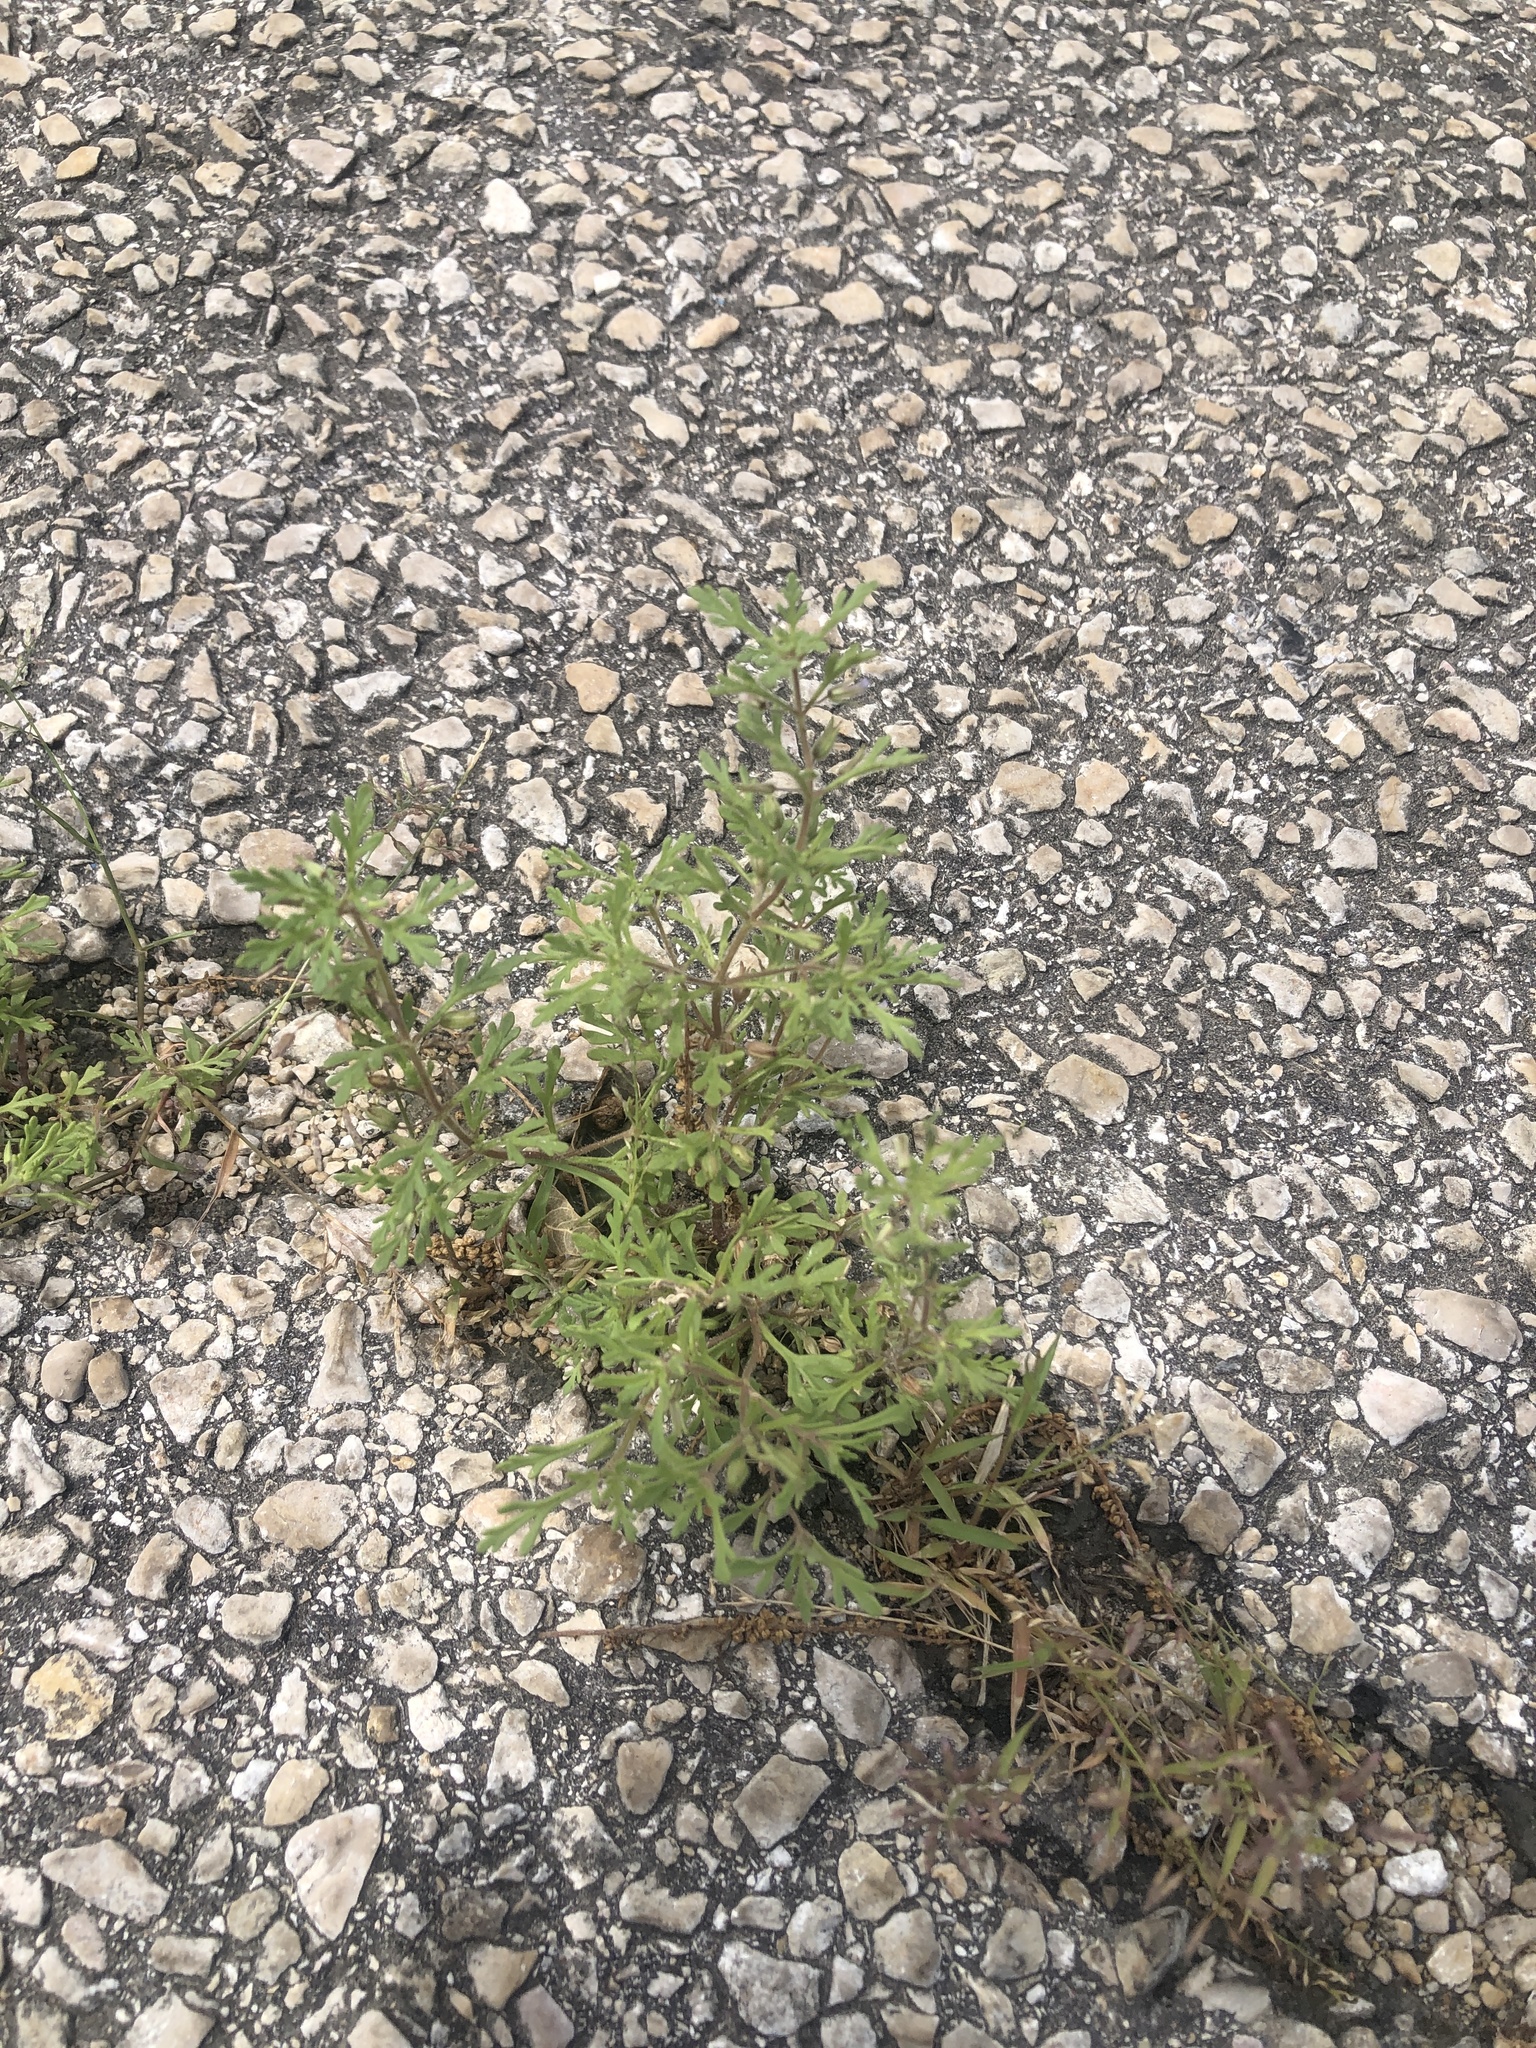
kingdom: Plantae
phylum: Tracheophyta
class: Magnoliopsida
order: Lamiales
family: Plantaginaceae
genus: Leucospora
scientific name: Leucospora multifida
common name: Narrow-leaf paleseed
